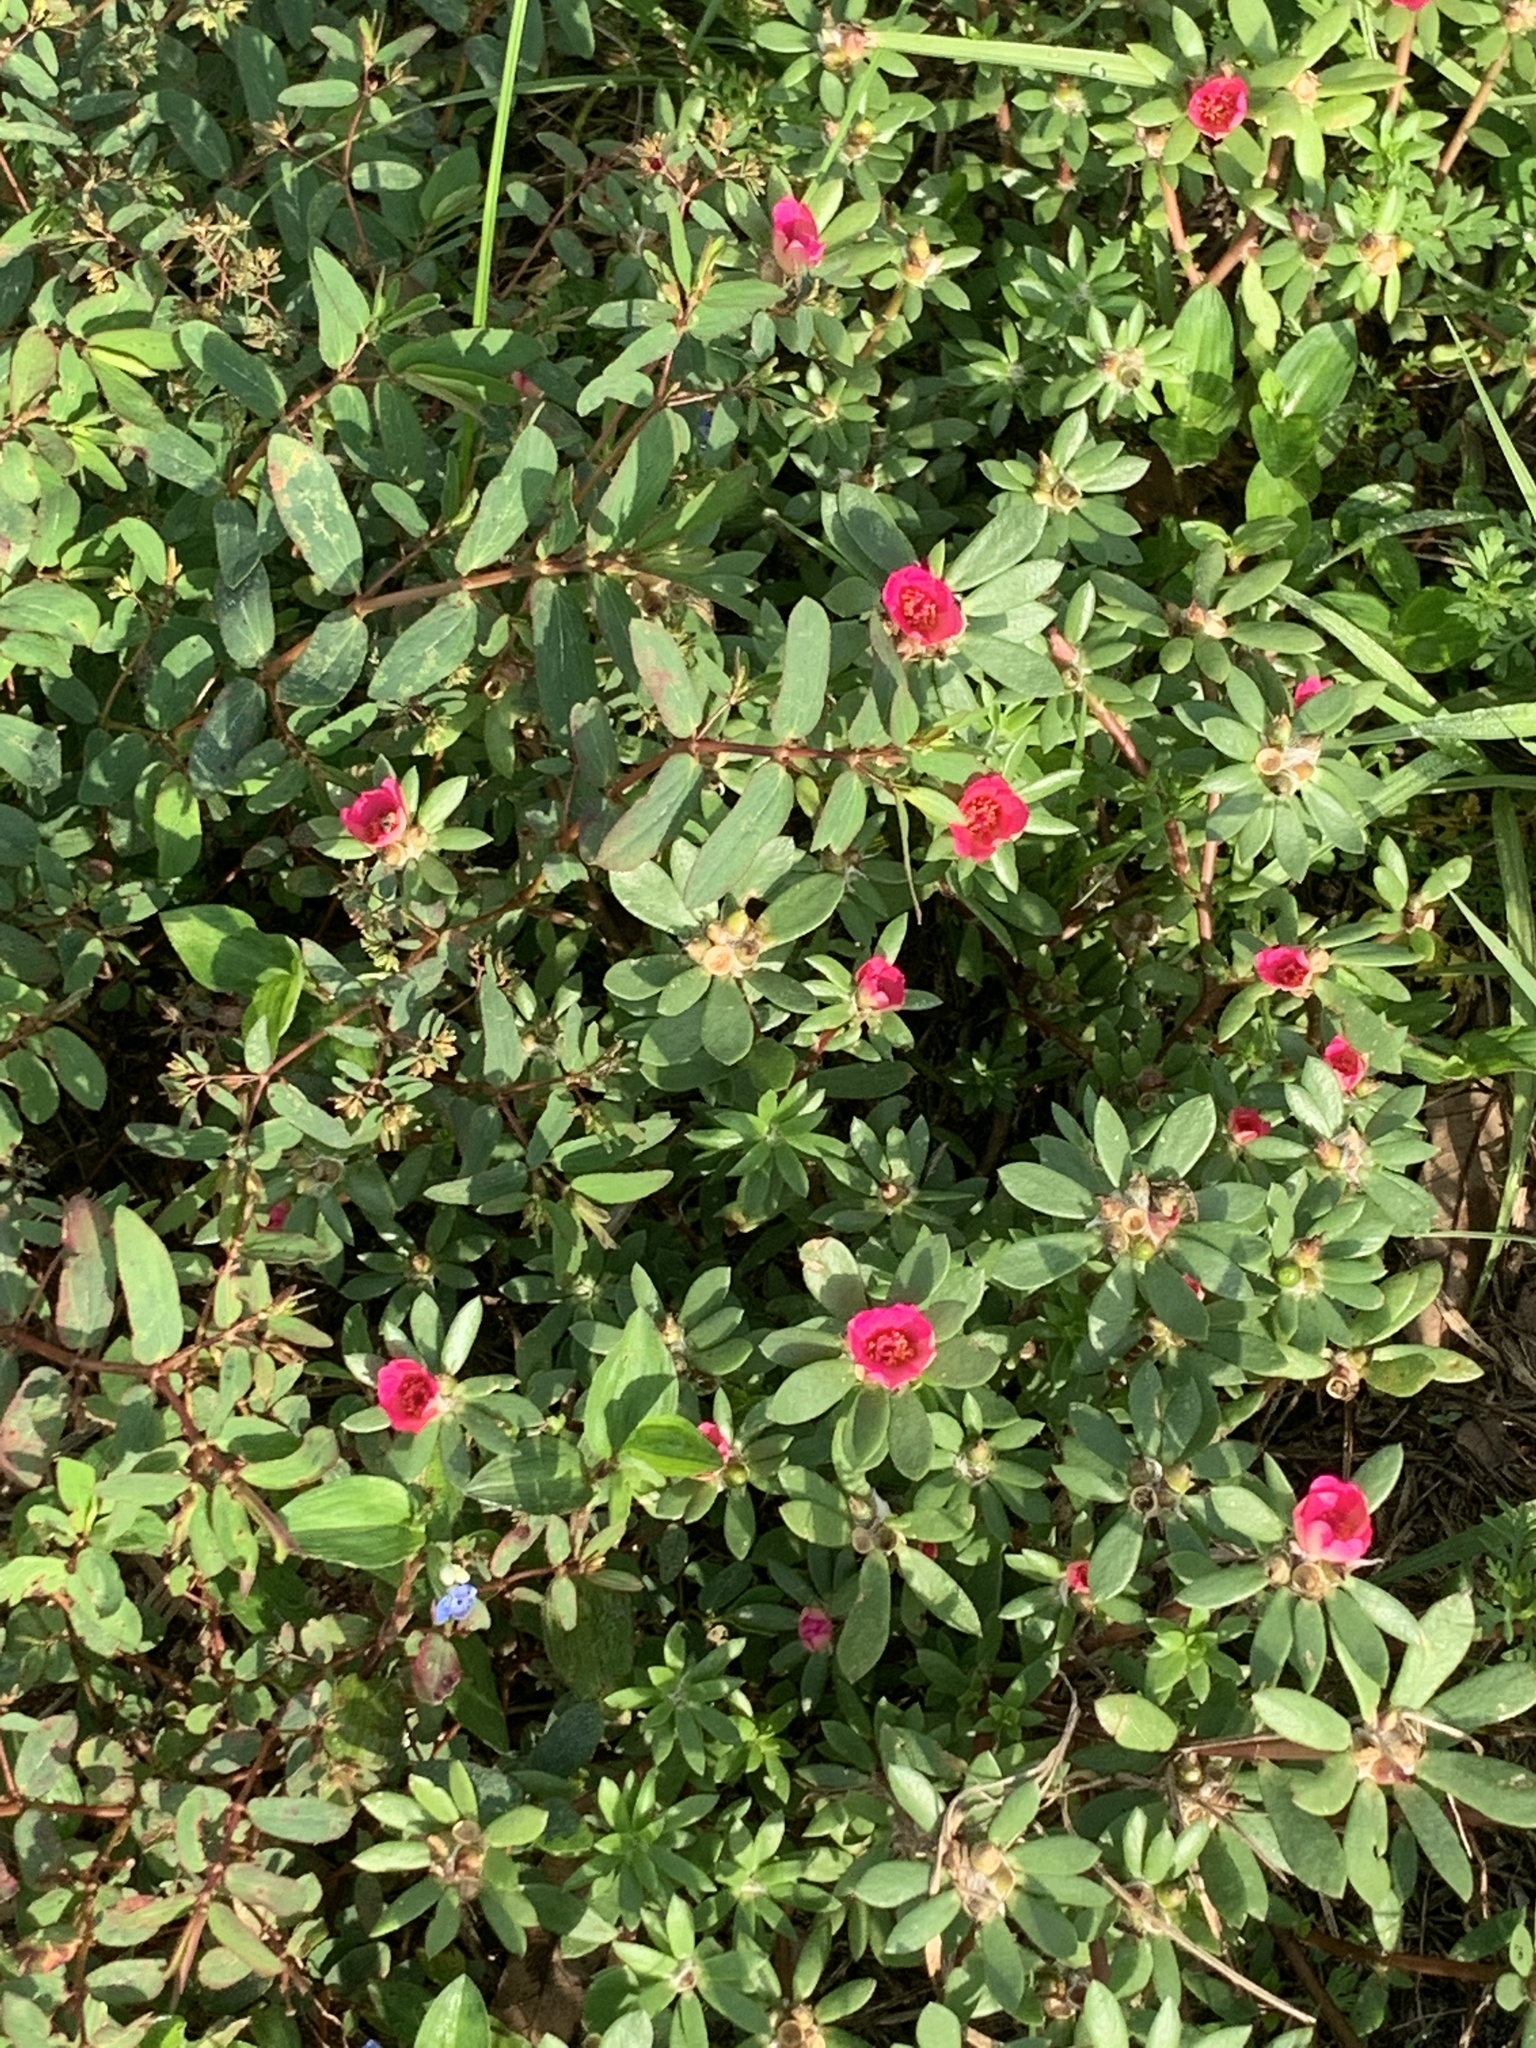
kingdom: Plantae
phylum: Tracheophyta
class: Magnoliopsida
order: Caryophyllales
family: Portulacaceae
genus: Portulaca
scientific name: Portulaca amilis
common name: Paraguayan purslane
